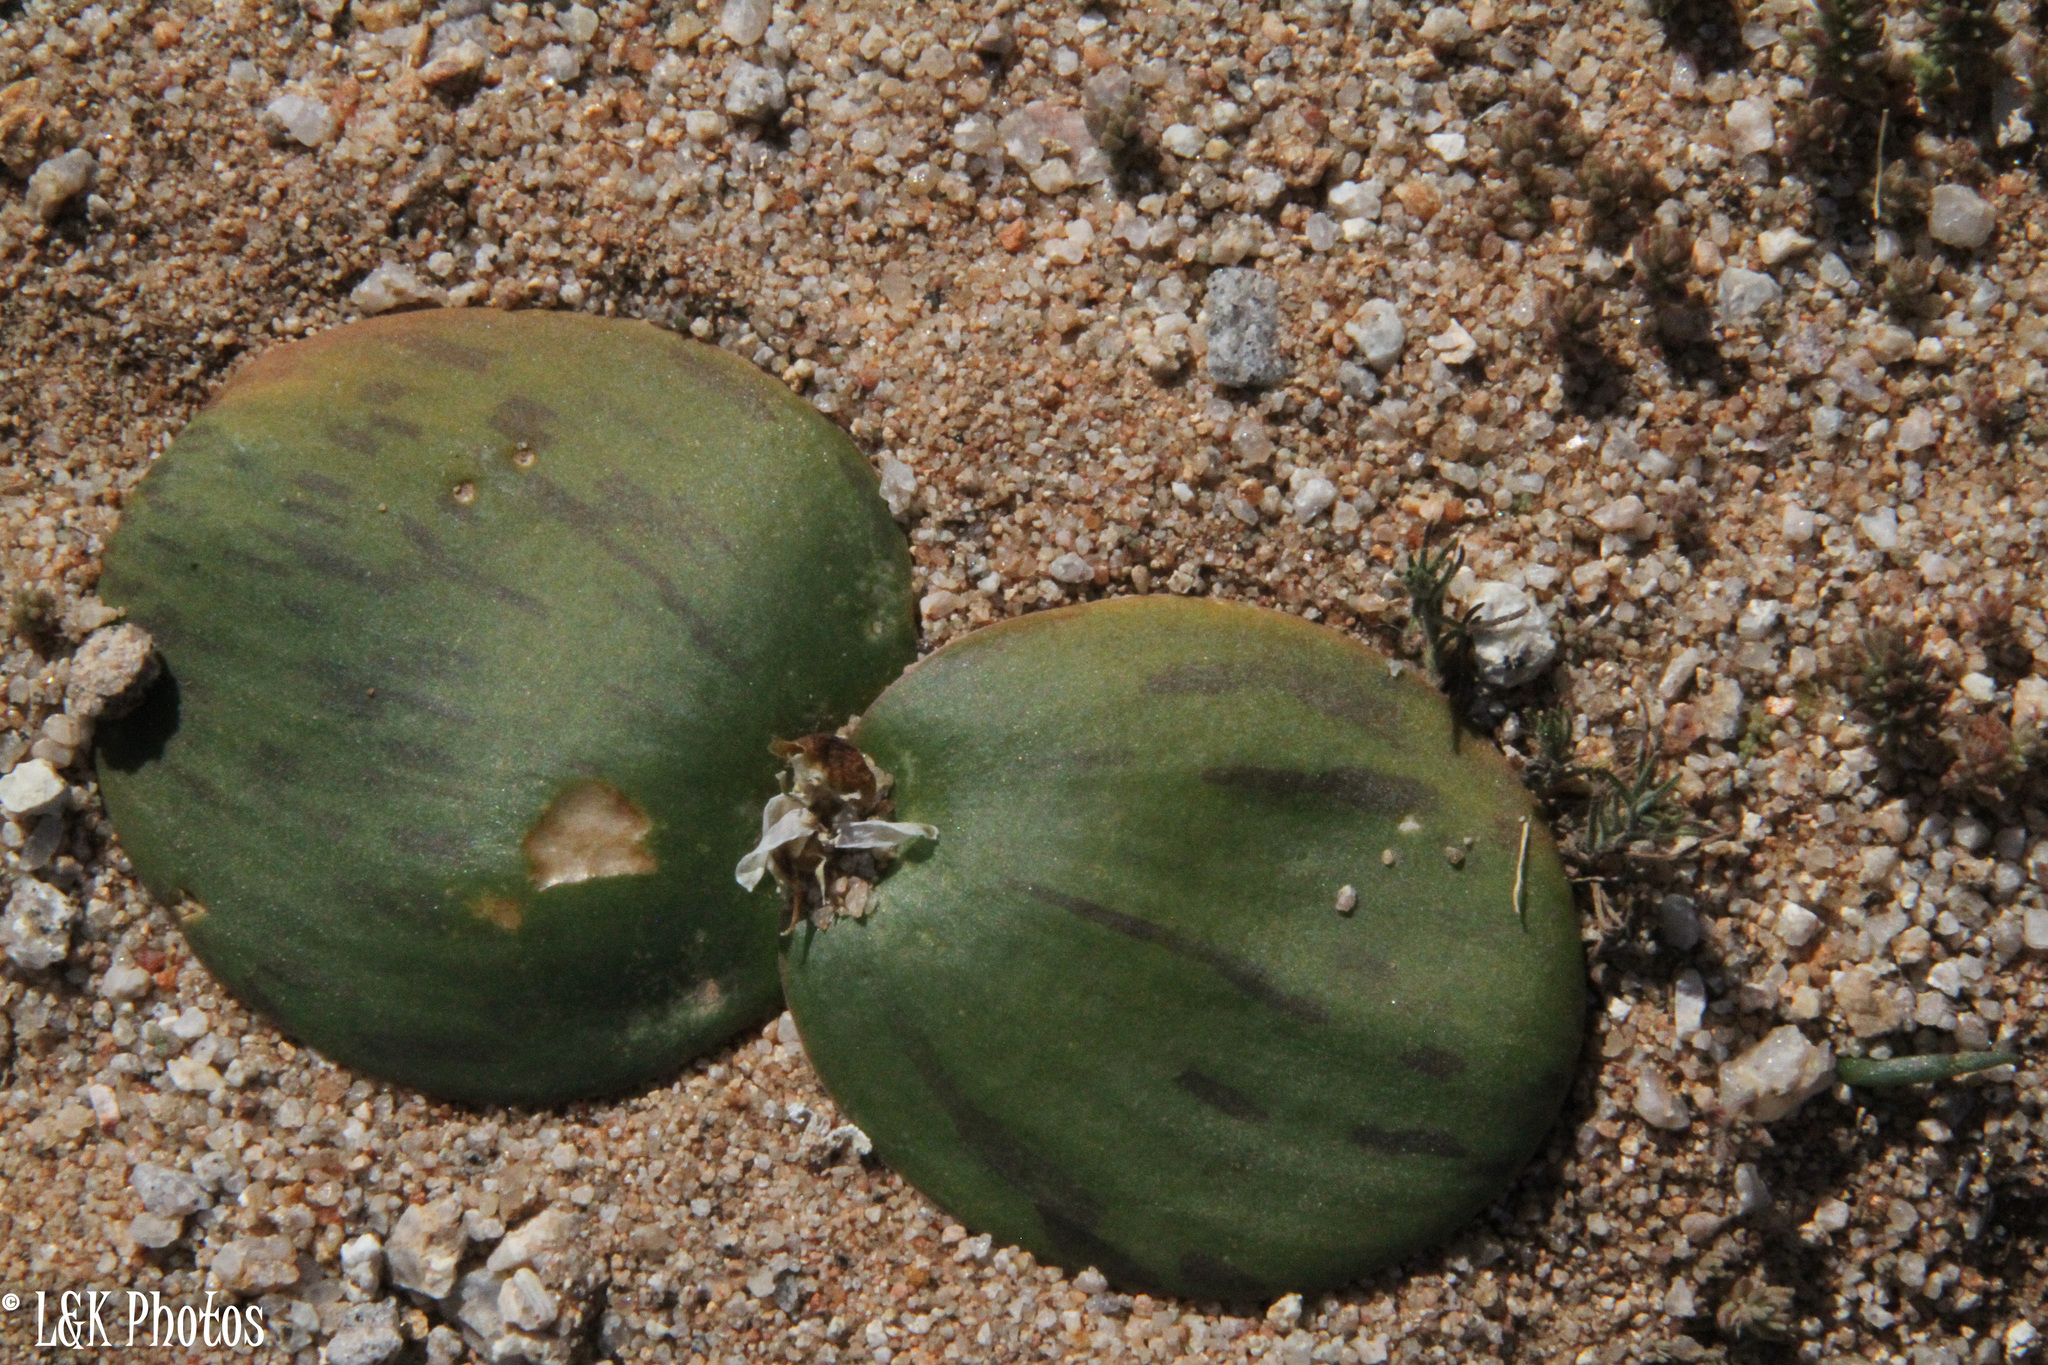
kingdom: Plantae
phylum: Tracheophyta
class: Liliopsida
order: Asparagales
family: Asparagaceae
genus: Massonia
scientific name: Massonia depressa
